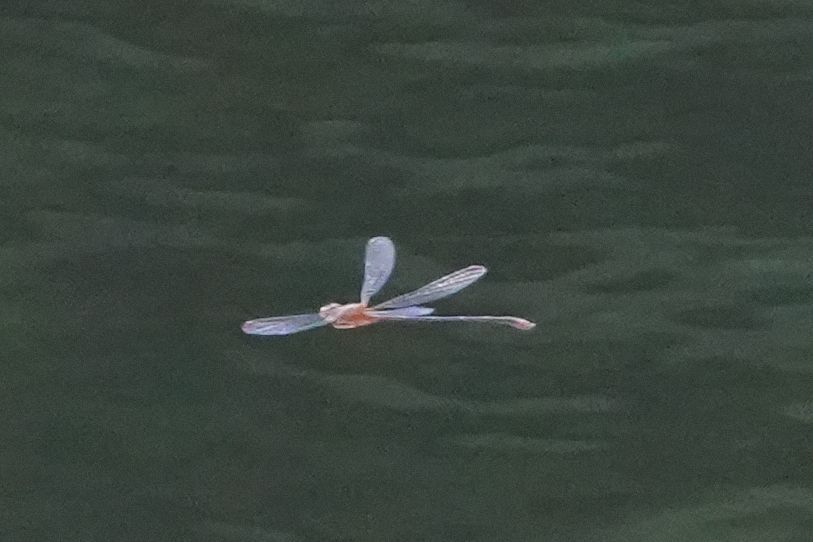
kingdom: Animalia
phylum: Arthropoda
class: Insecta
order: Odonata
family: Coenagrionidae
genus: Enallagma
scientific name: Enallagma signatum
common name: Orange bluet
